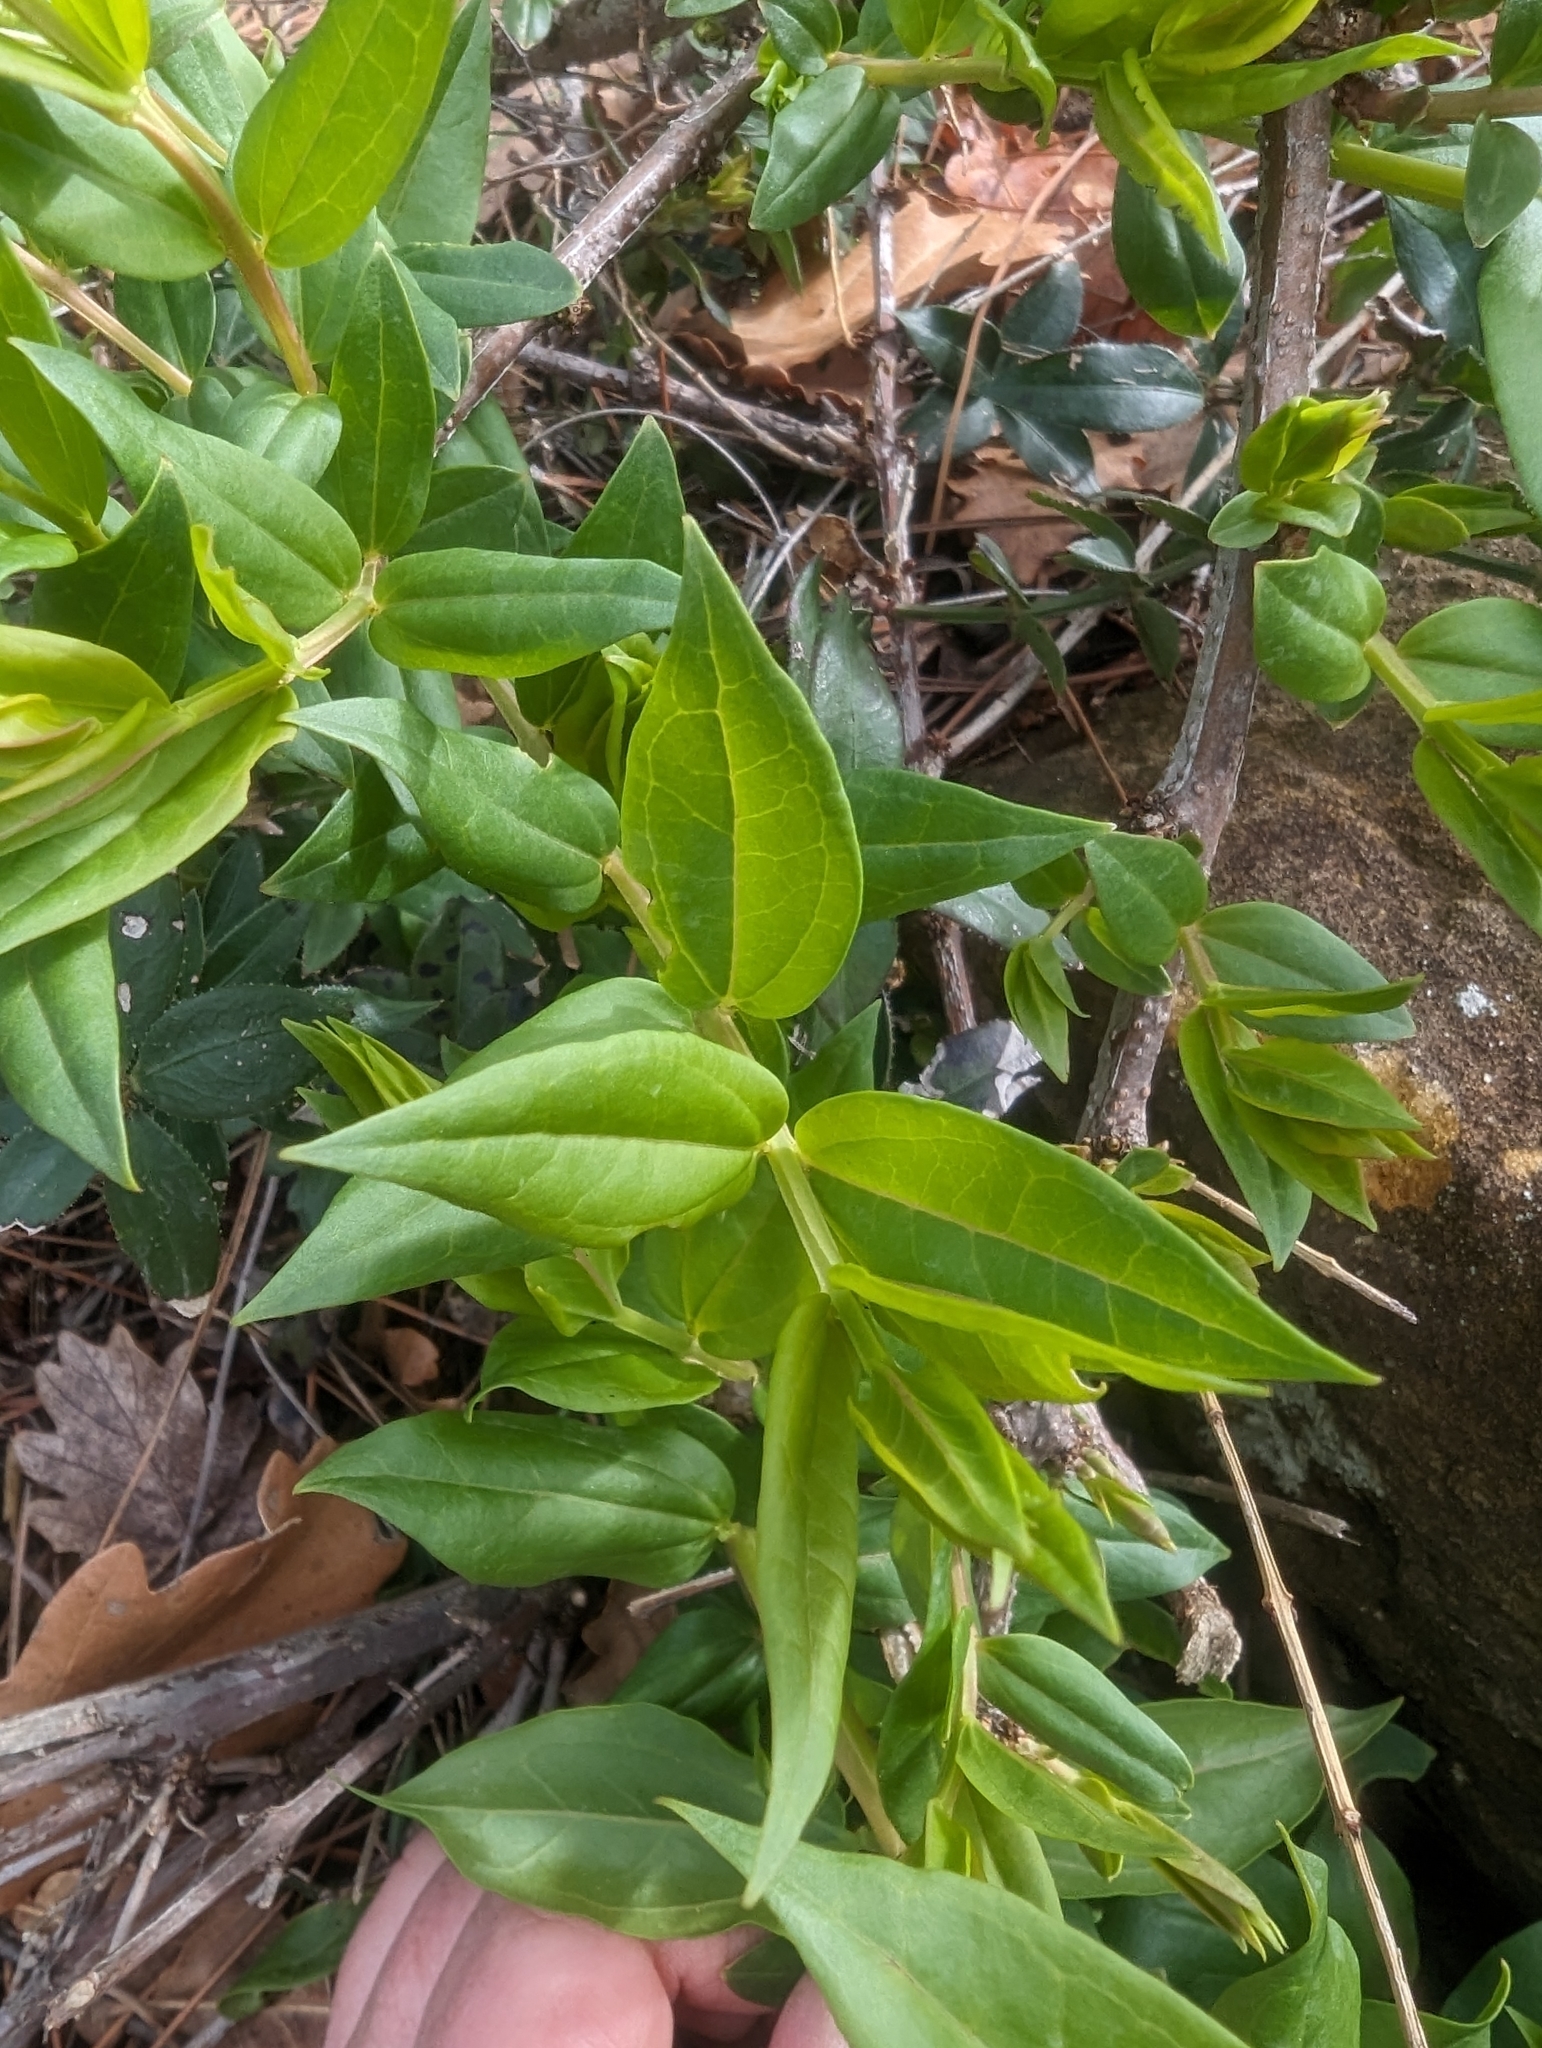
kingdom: Plantae
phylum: Tracheophyta
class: Magnoliopsida
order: Cucurbitales
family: Coriariaceae
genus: Coriaria
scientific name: Coriaria myrtifolia
